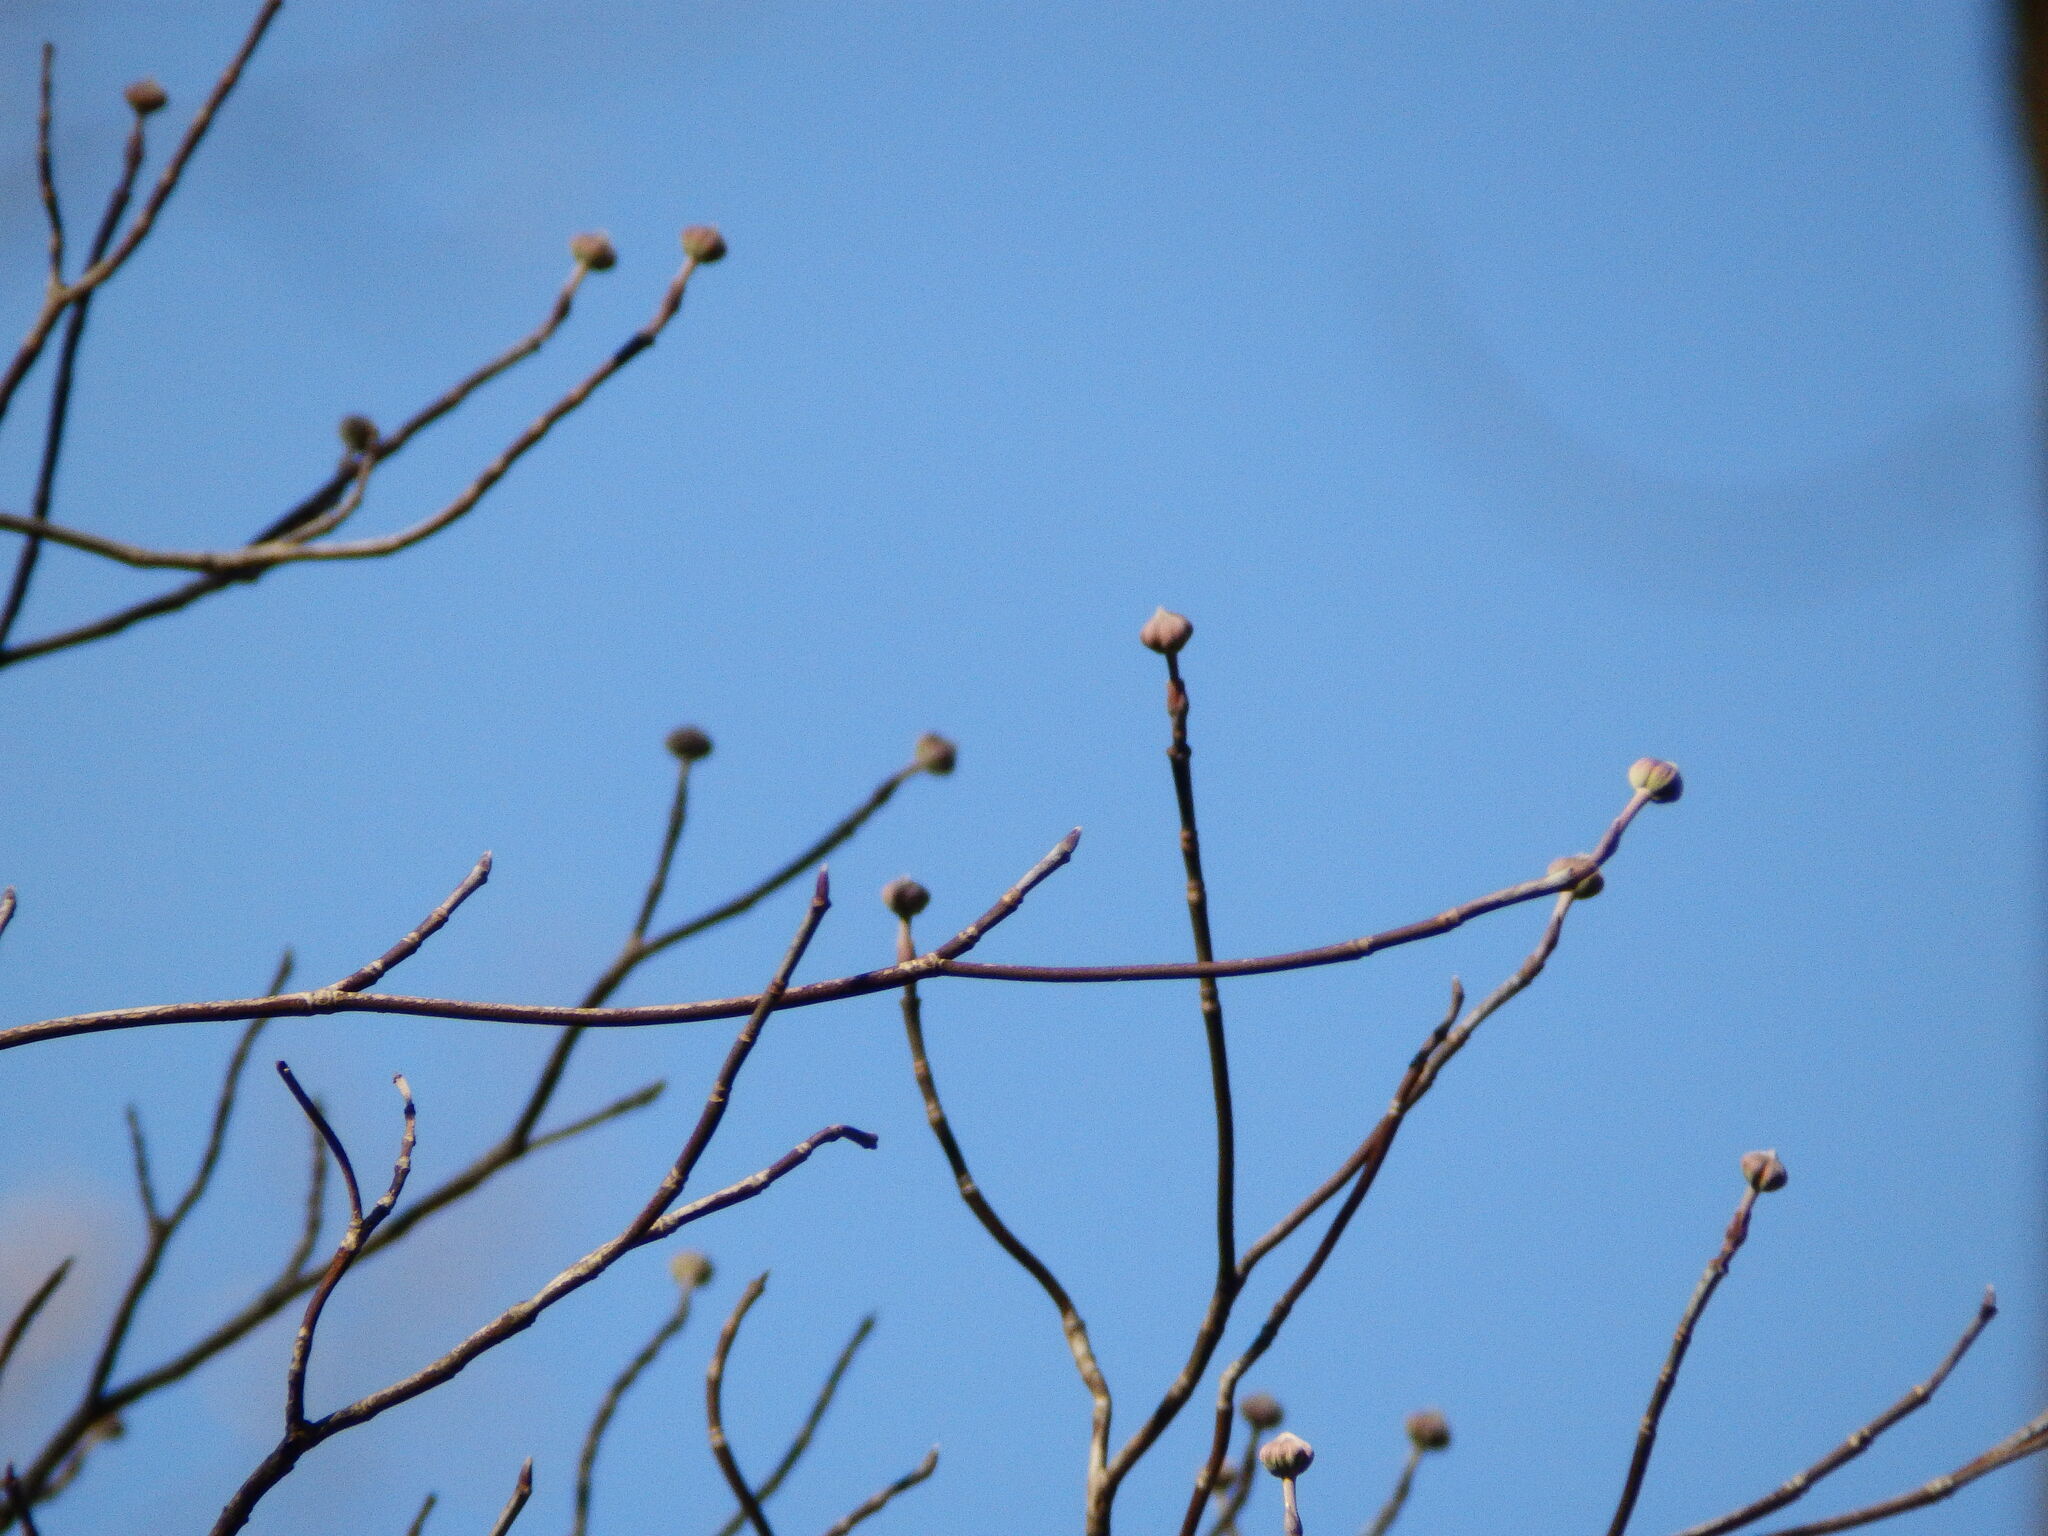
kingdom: Plantae
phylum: Tracheophyta
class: Magnoliopsida
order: Cornales
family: Cornaceae
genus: Cornus
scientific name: Cornus florida
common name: Flowering dogwood
